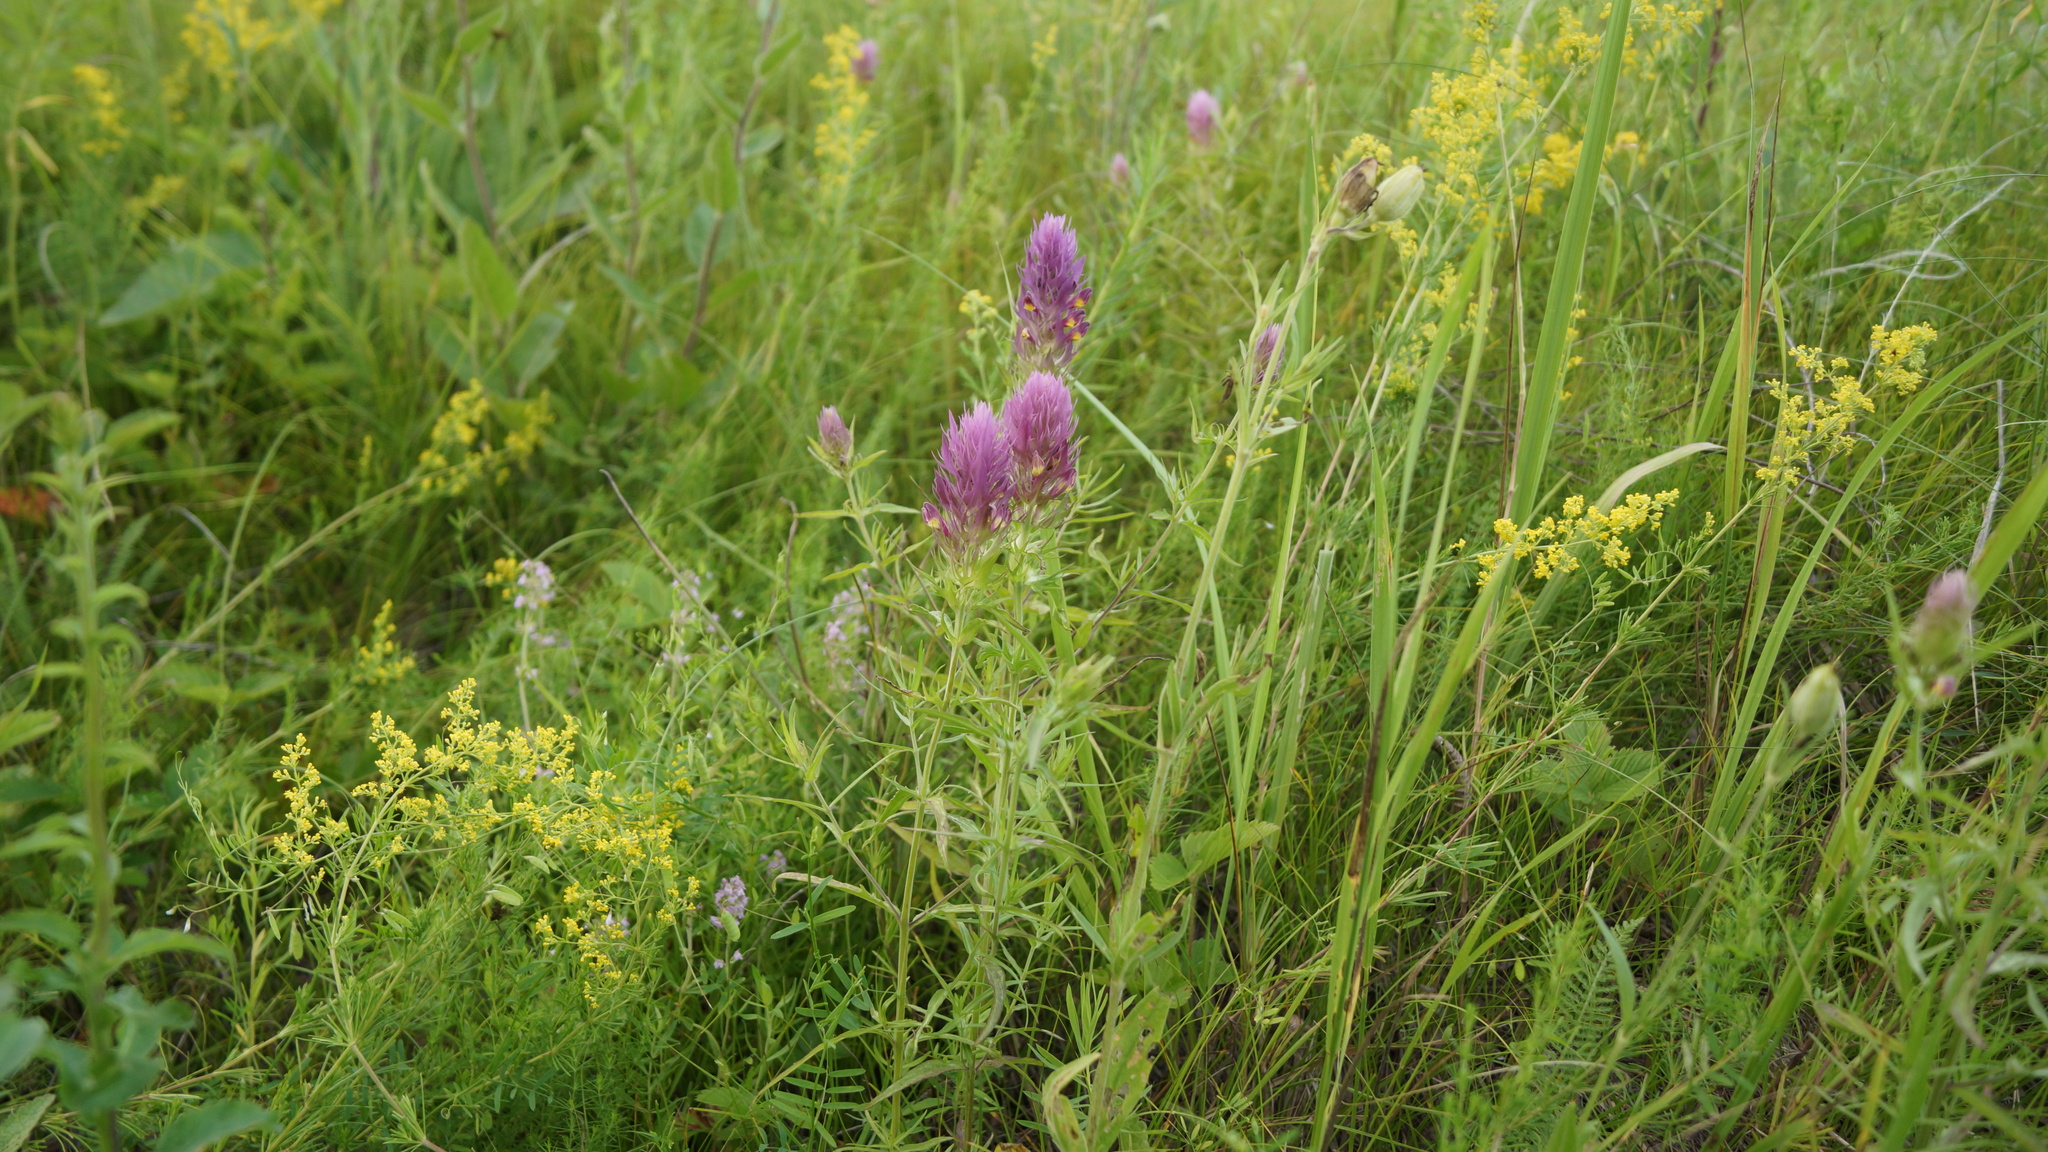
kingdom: Plantae
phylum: Tracheophyta
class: Magnoliopsida
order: Lamiales
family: Orobanchaceae
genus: Melampyrum
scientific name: Melampyrum arvense
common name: Field cow-wheat
